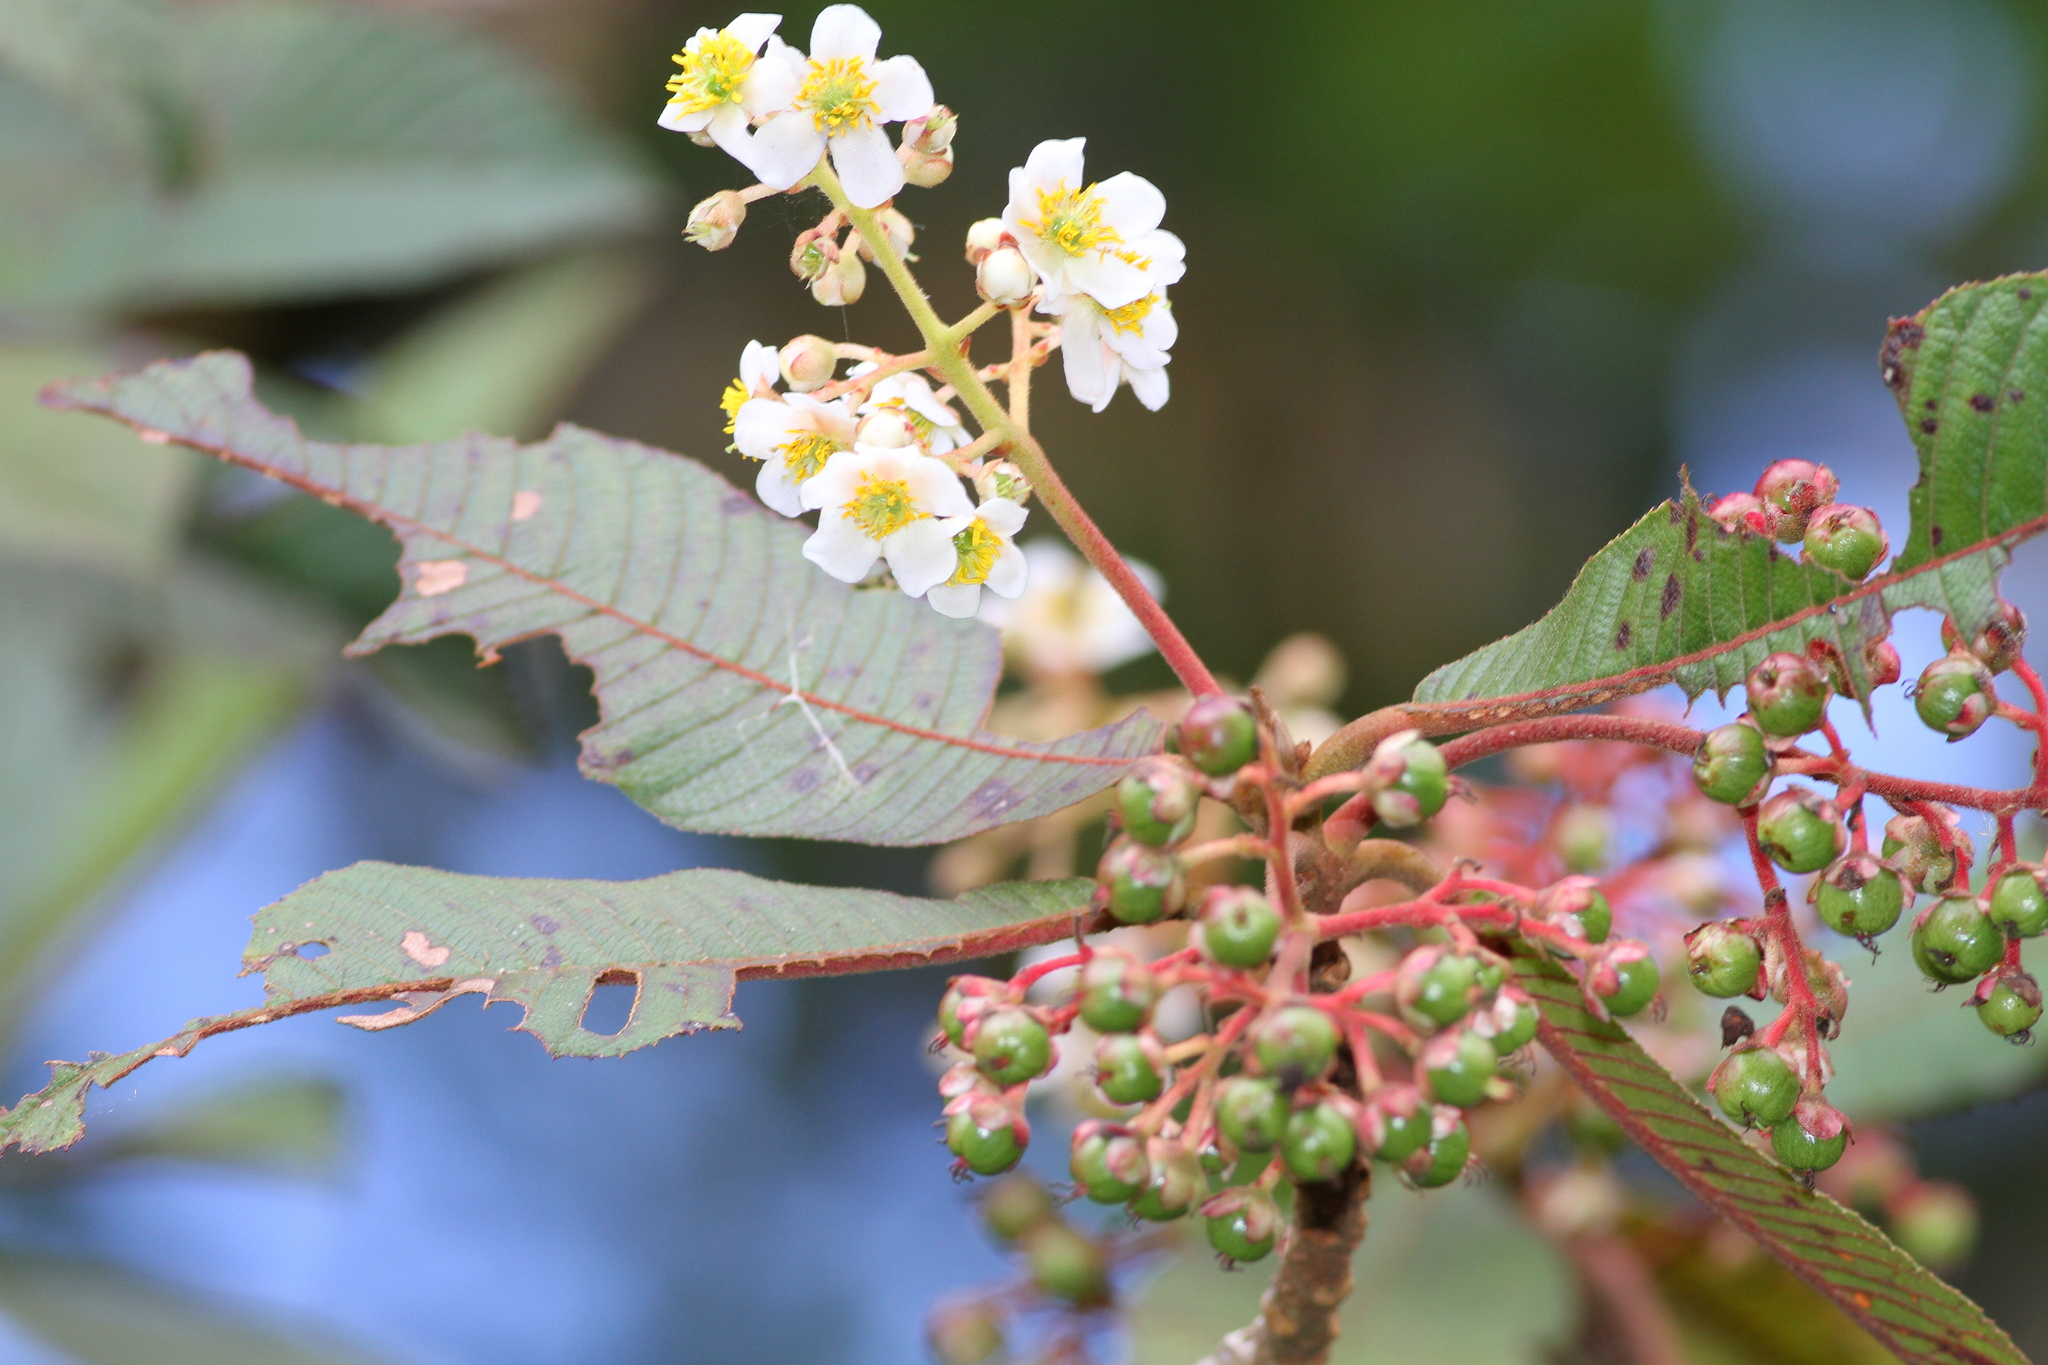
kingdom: Plantae
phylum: Tracheophyta
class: Magnoliopsida
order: Ericales
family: Actinidiaceae
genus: Saurauia
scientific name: Saurauia madrensis
